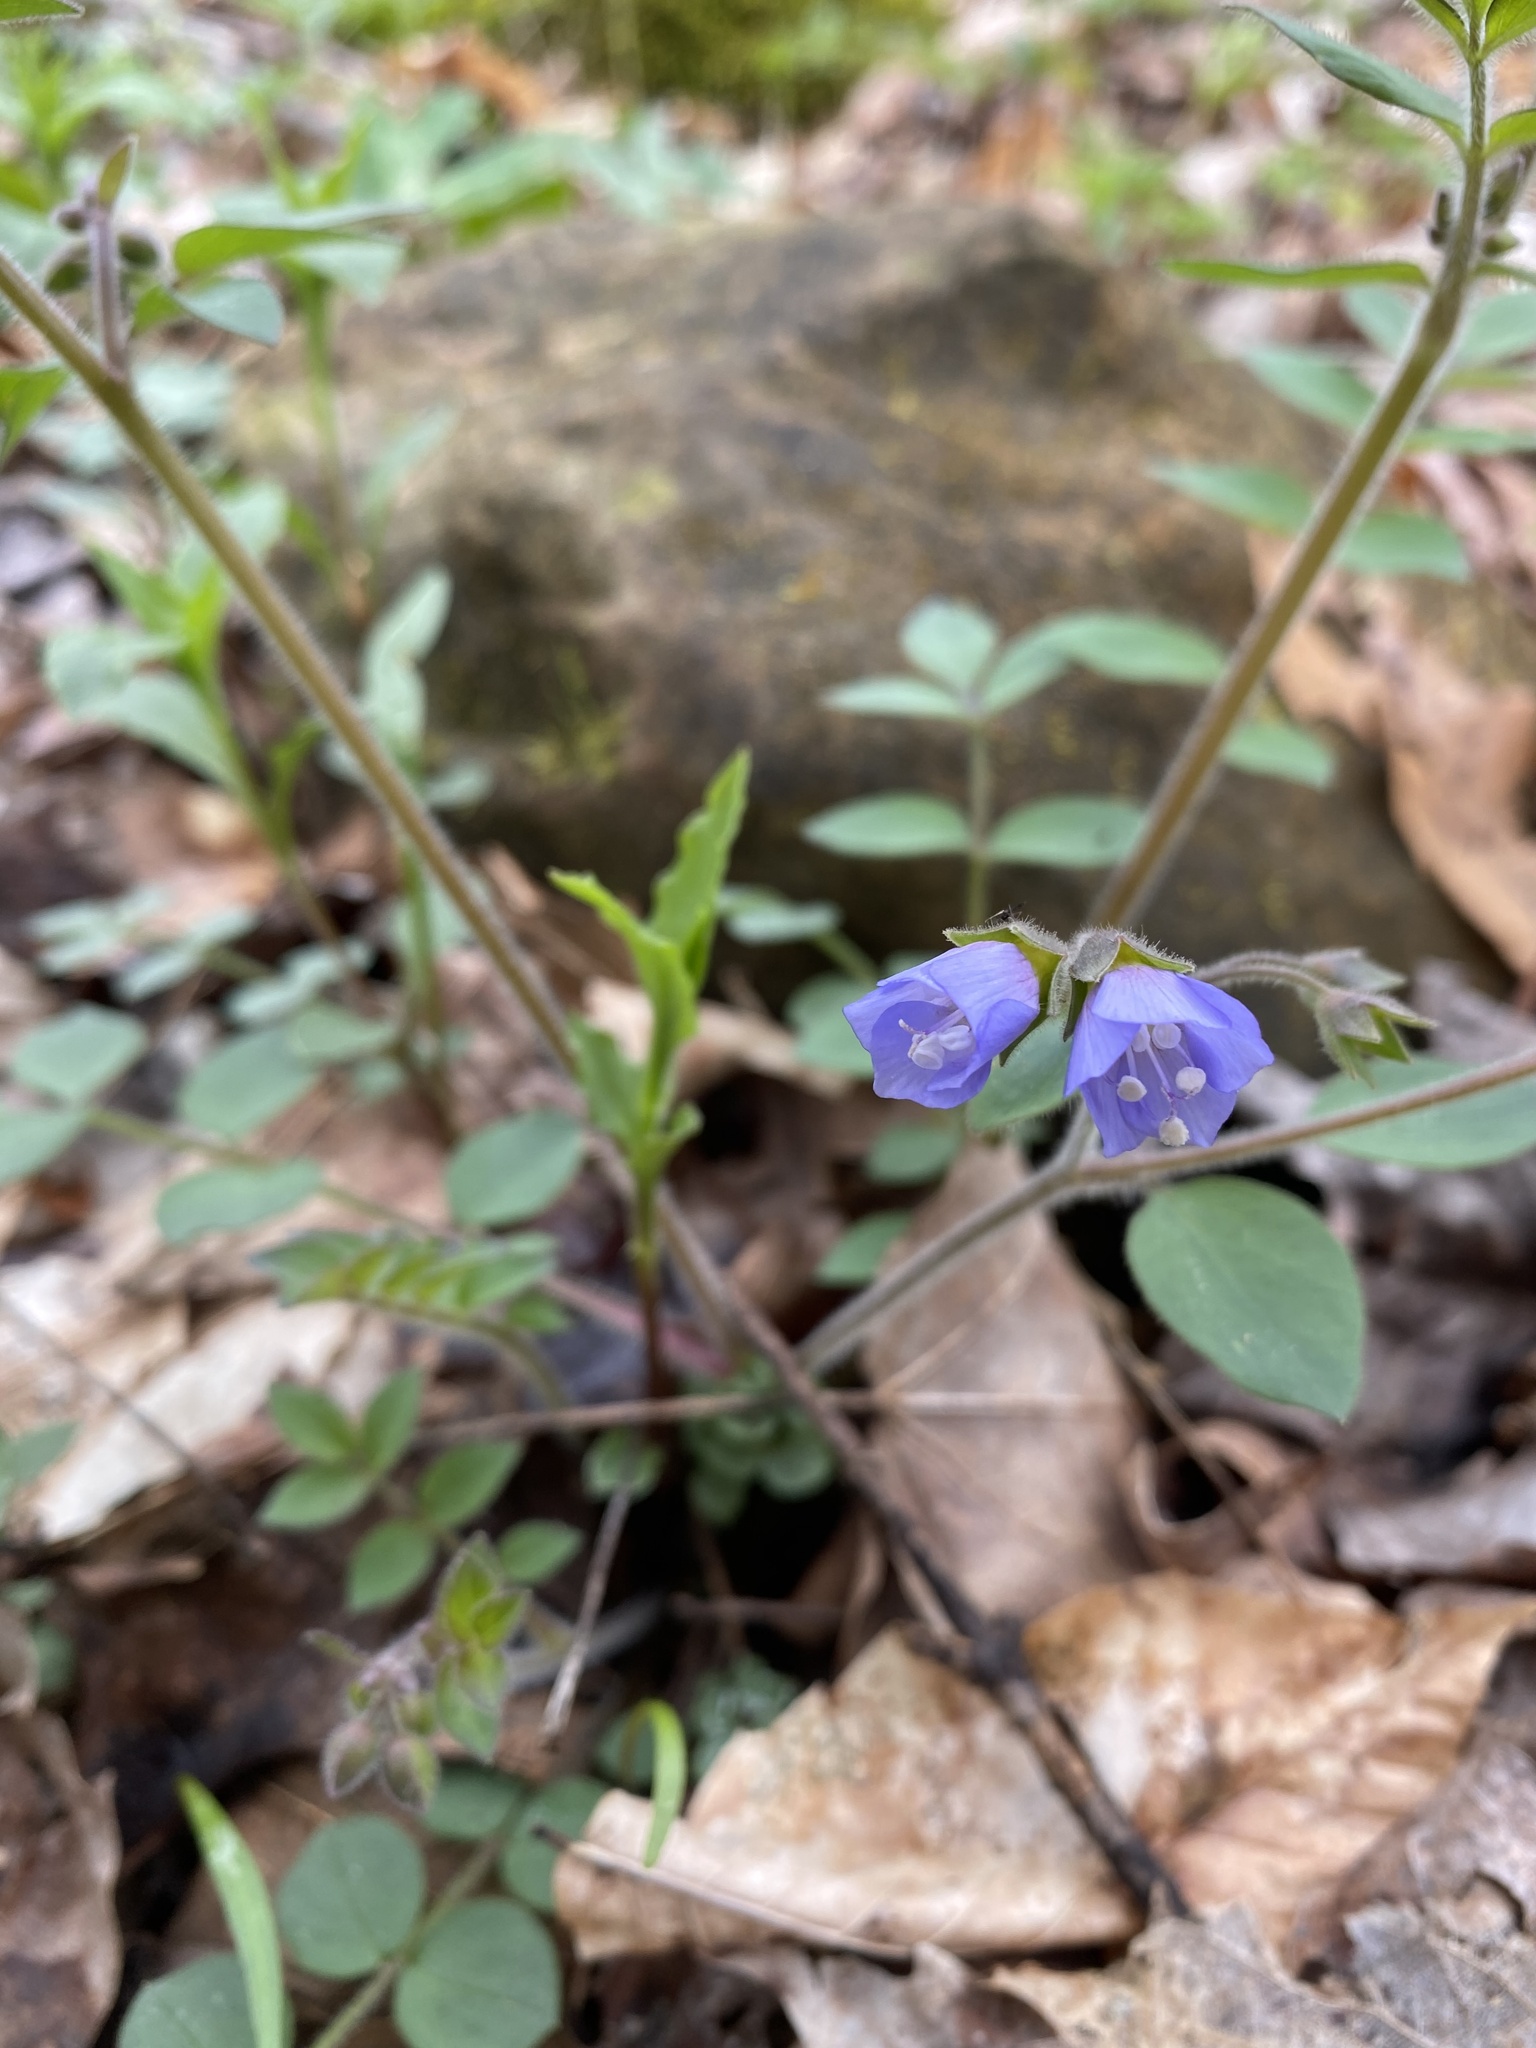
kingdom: Plantae
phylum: Tracheophyta
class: Magnoliopsida
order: Ericales
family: Polemoniaceae
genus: Polemonium
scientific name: Polemonium reptans
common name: Creeping jacob's-ladder
